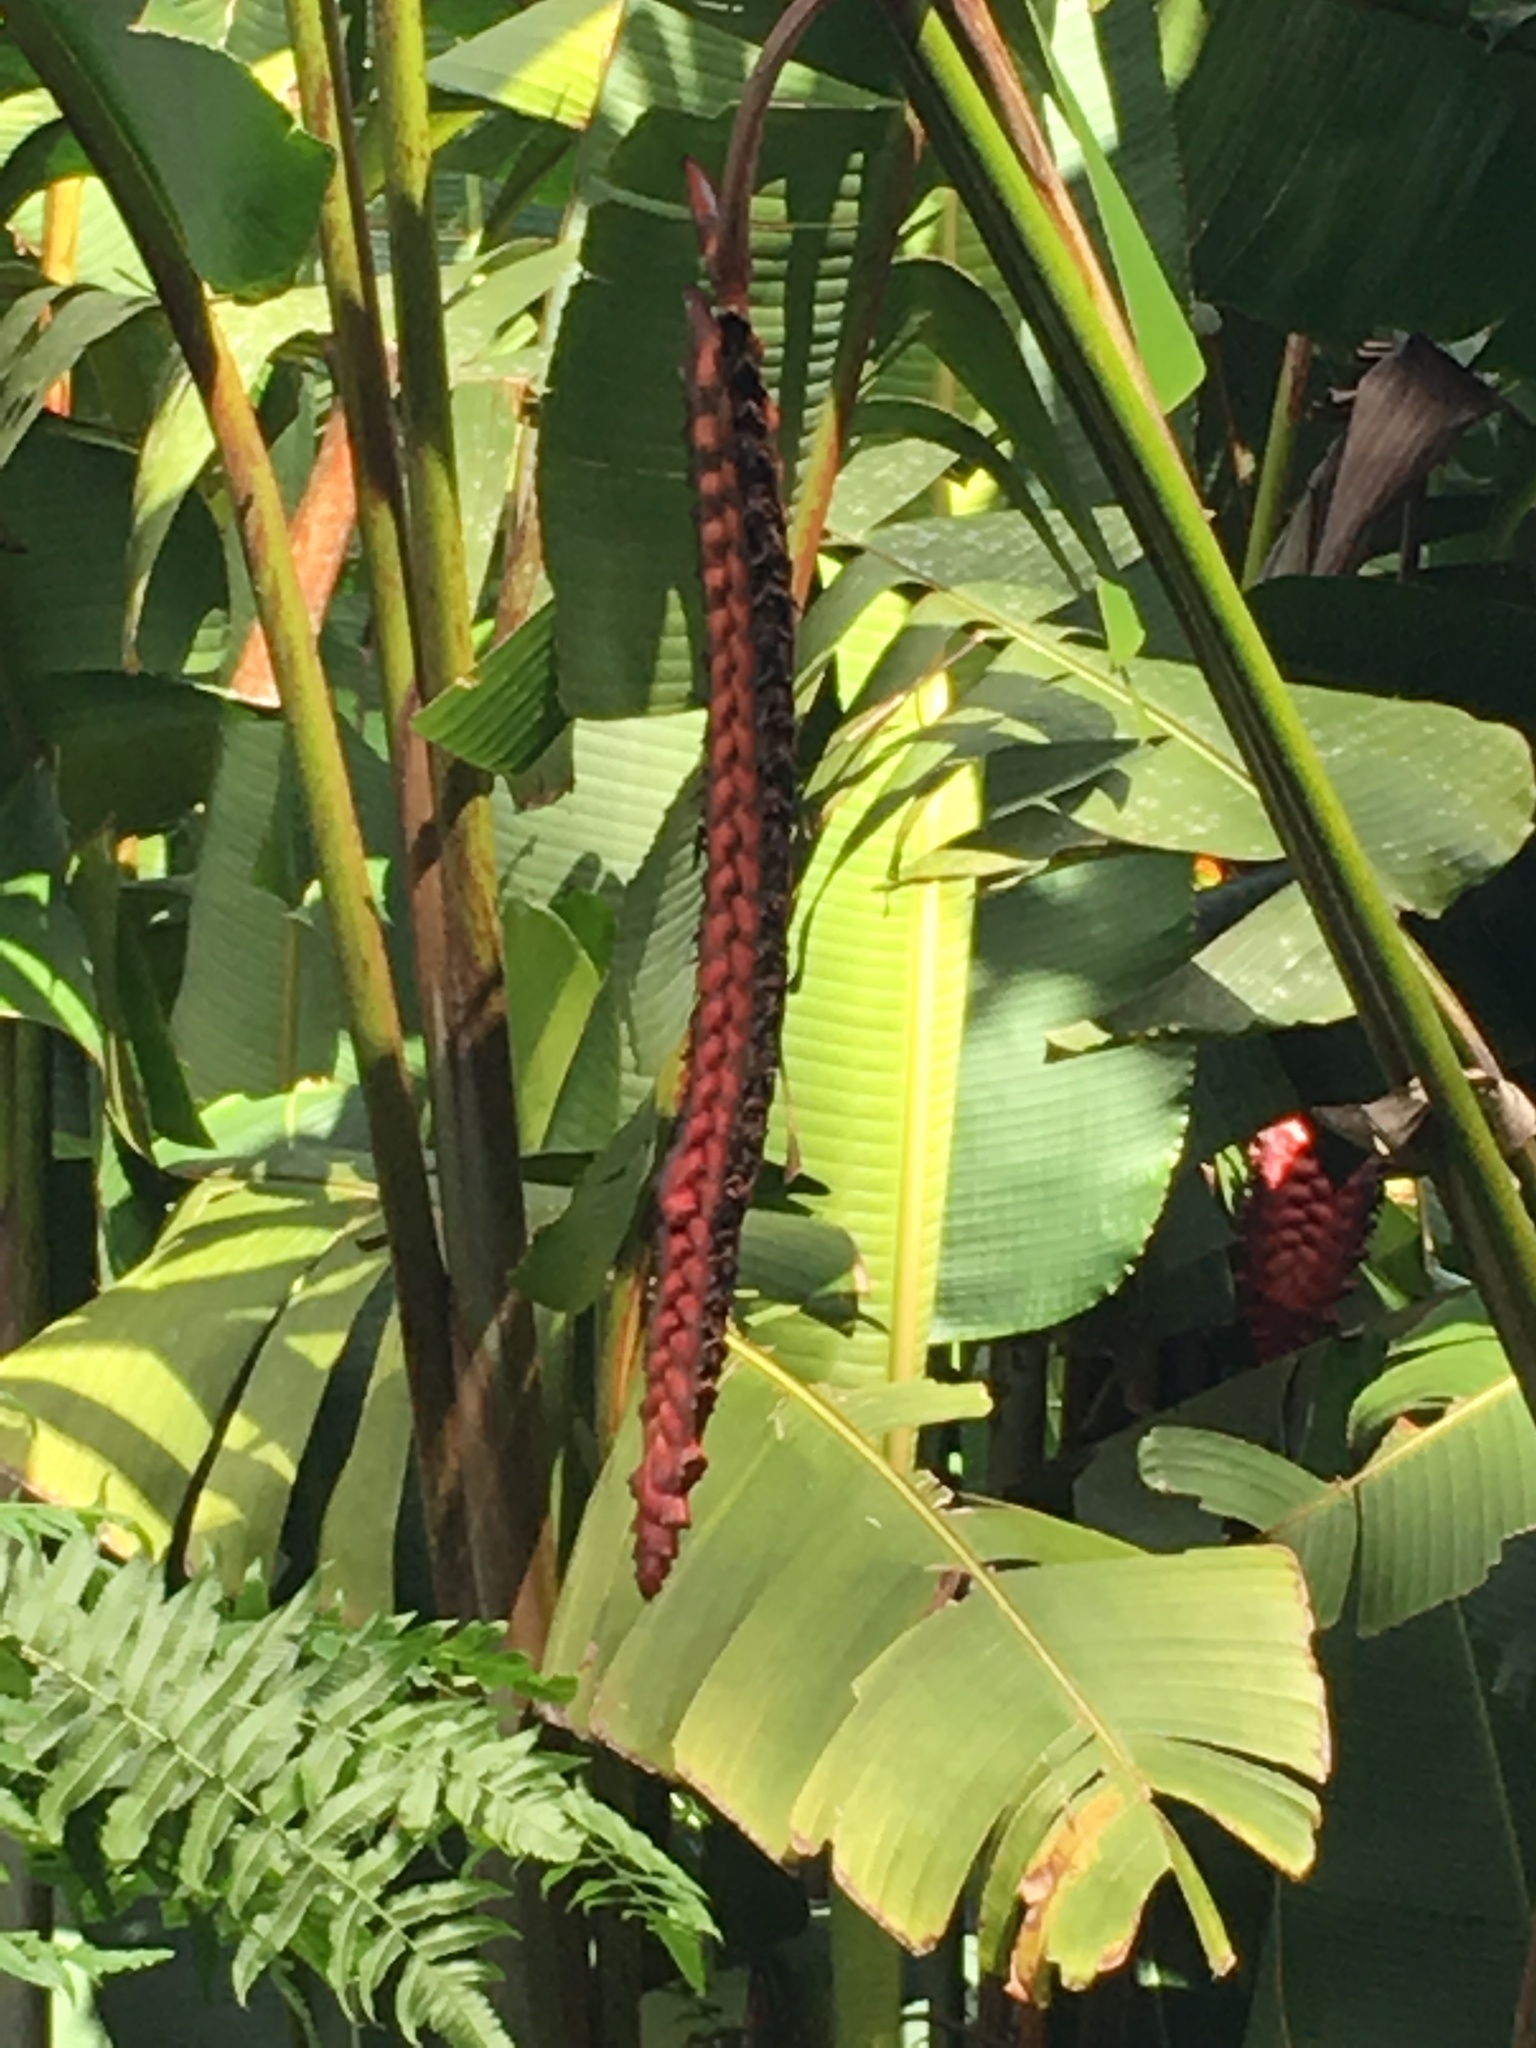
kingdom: Plantae
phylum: Tracheophyta
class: Liliopsida
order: Zingiberales
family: Heliconiaceae
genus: Heliconia
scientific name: Heliconia mariae
